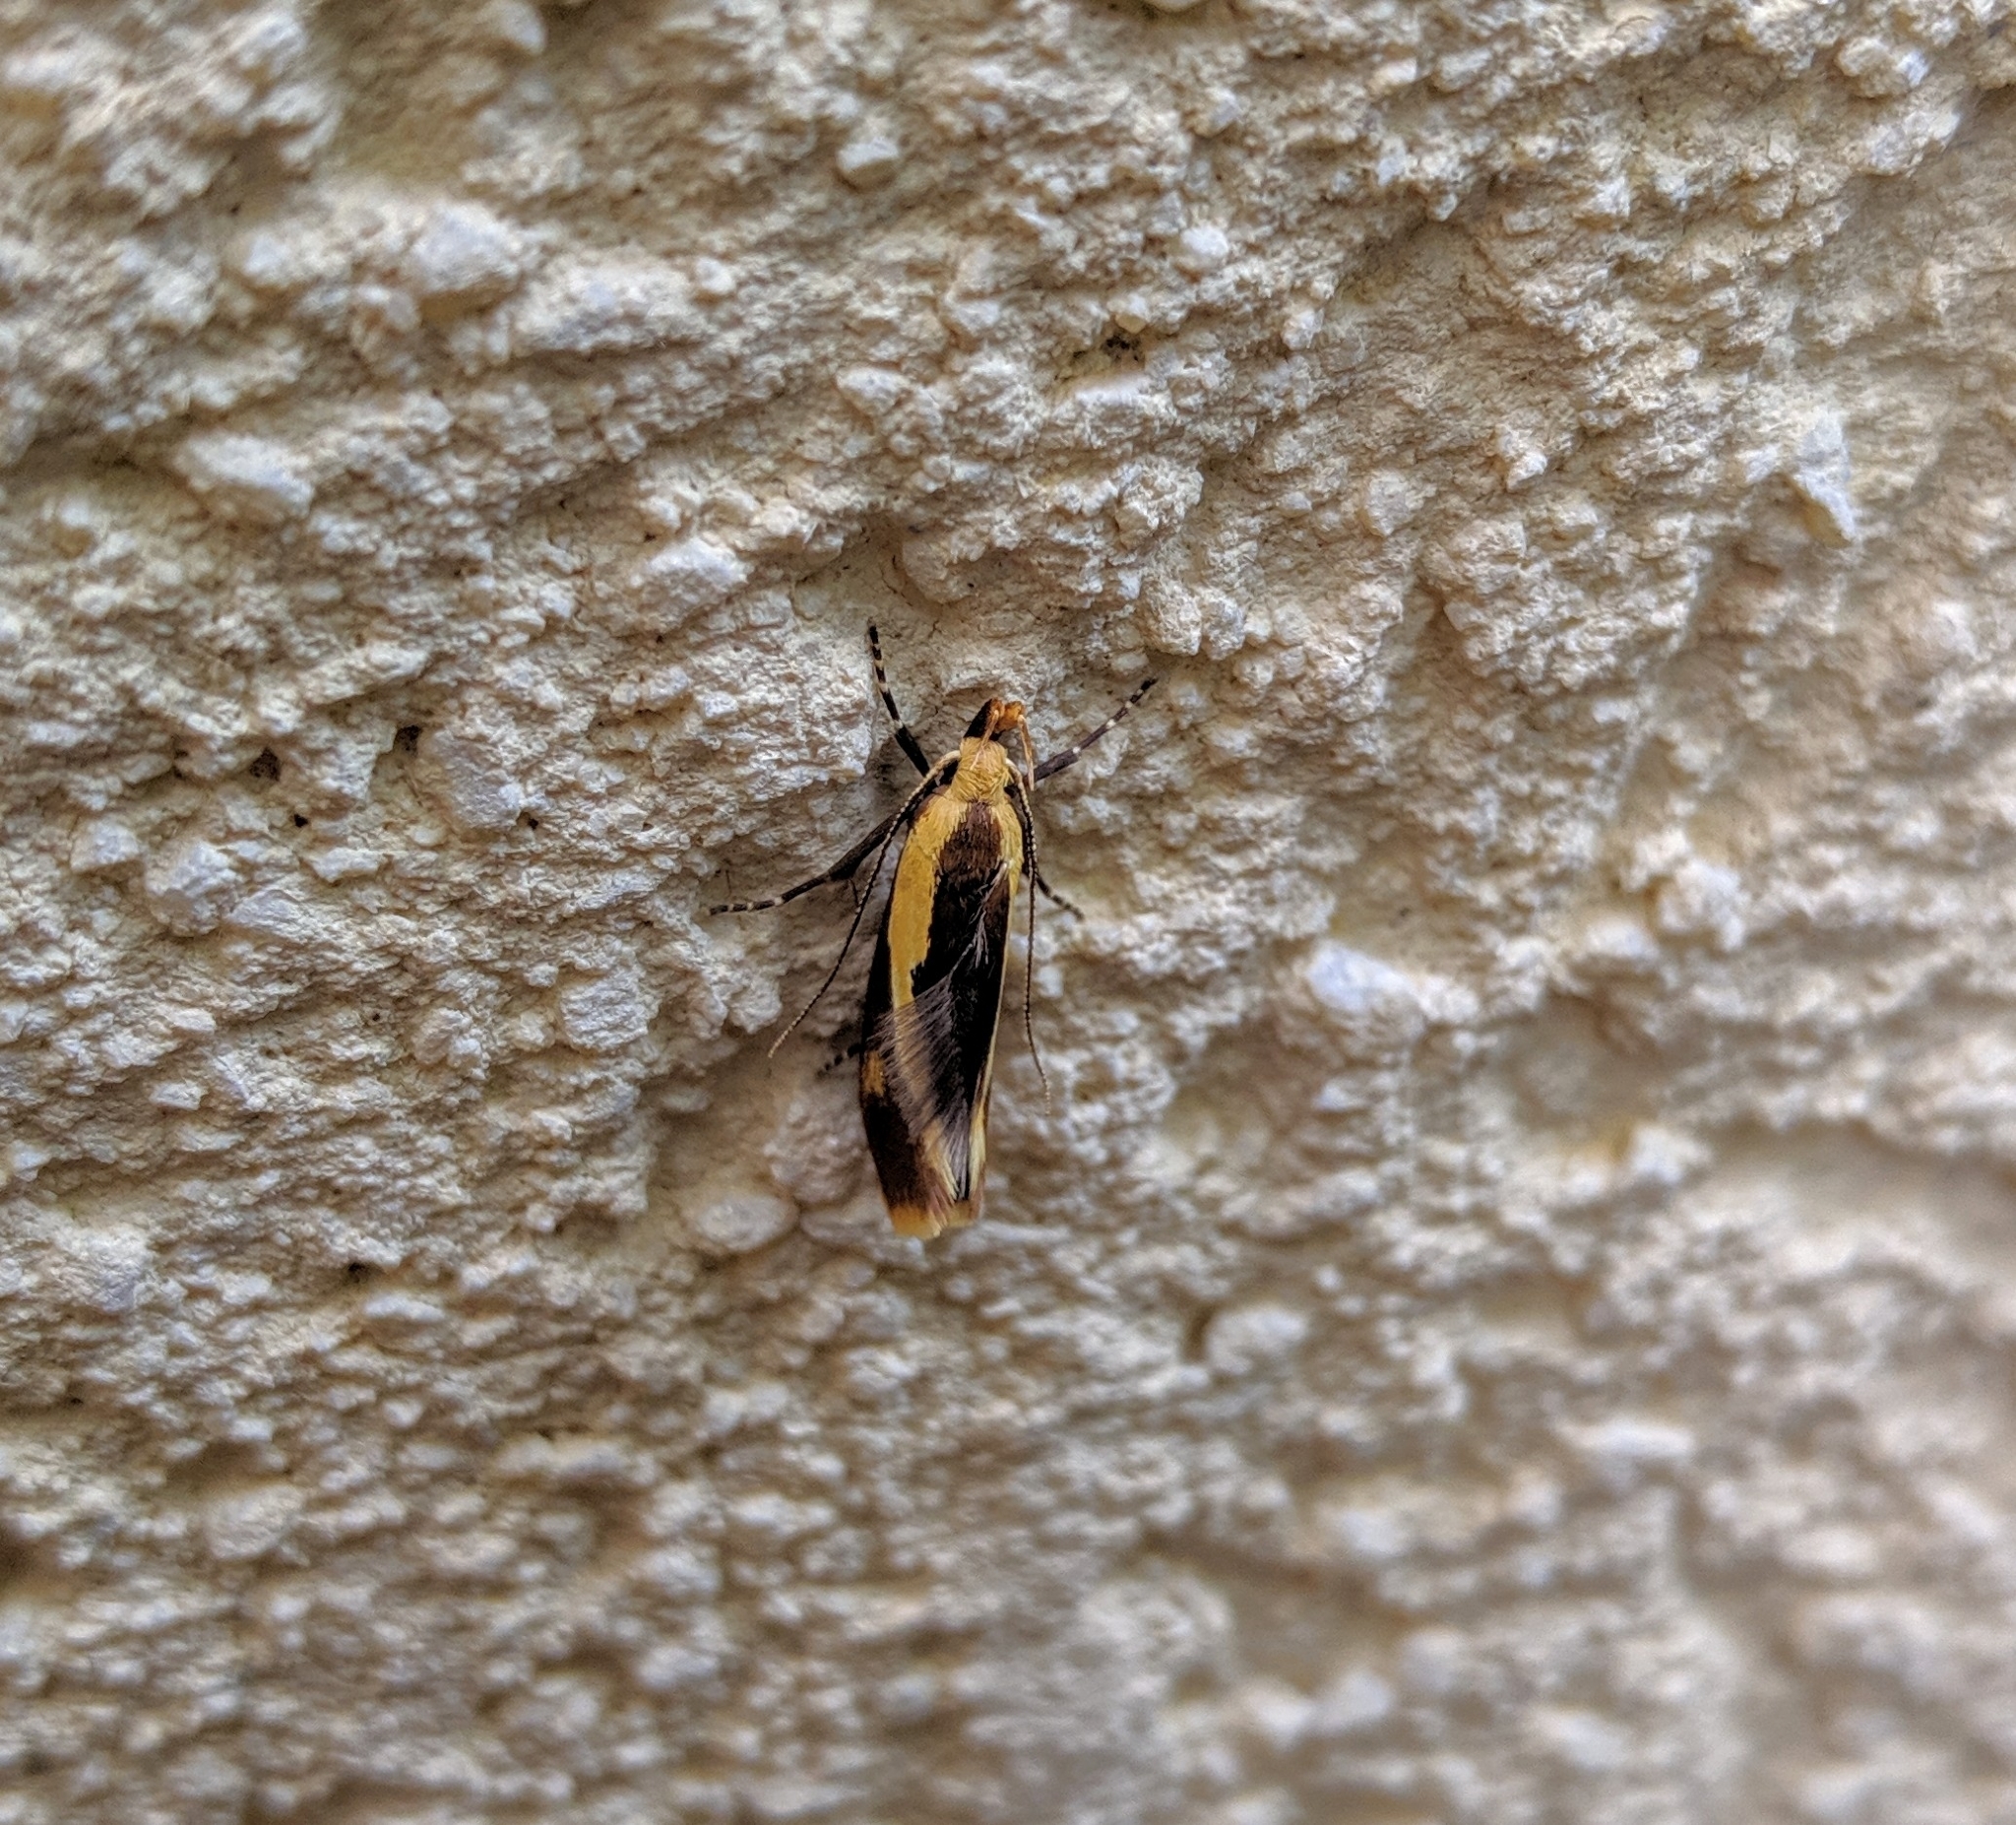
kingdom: Animalia
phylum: Arthropoda
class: Insecta
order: Lepidoptera
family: Oecophoridae
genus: Harpella
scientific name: Harpella forficella
